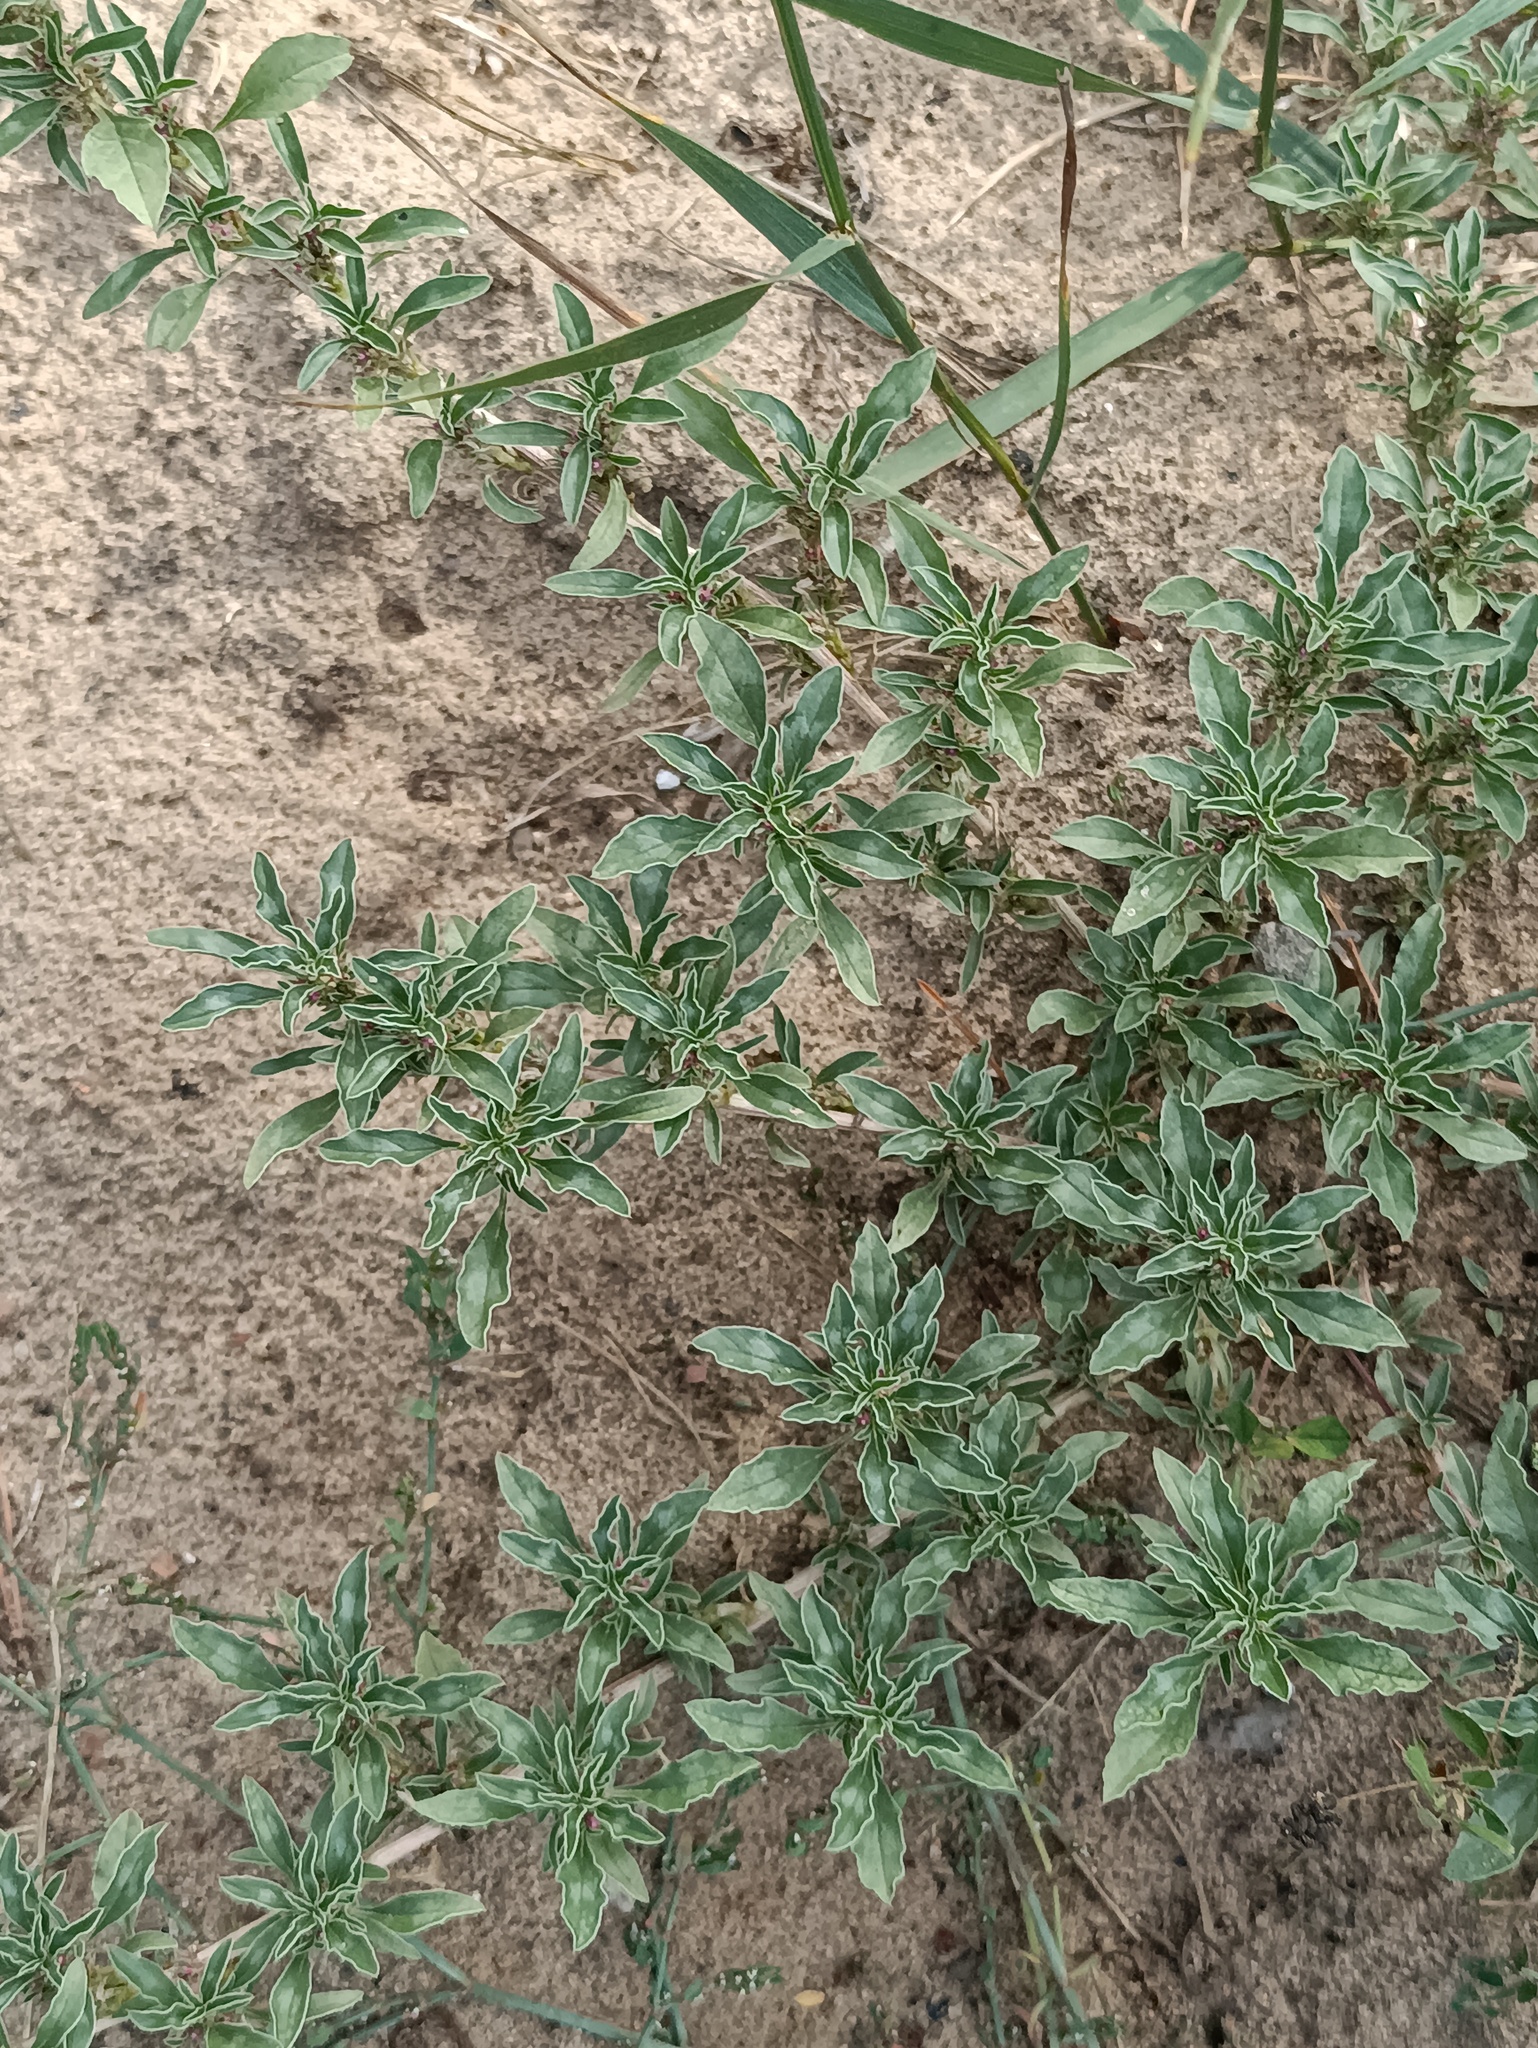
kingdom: Plantae
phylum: Tracheophyta
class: Magnoliopsida
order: Caryophyllales
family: Amaranthaceae
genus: Amaranthus
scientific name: Amaranthus blitoides
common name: Prostrate pigweed
